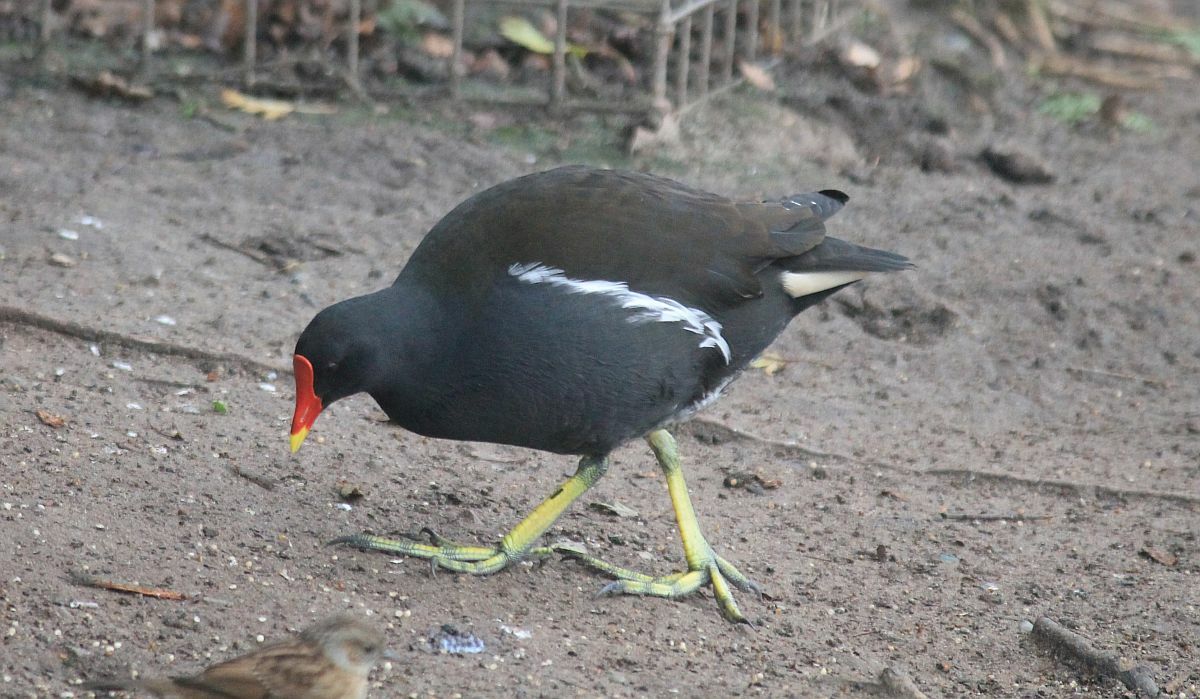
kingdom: Animalia
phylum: Chordata
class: Aves
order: Gruiformes
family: Rallidae
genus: Gallinula
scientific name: Gallinula chloropus
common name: Common moorhen
